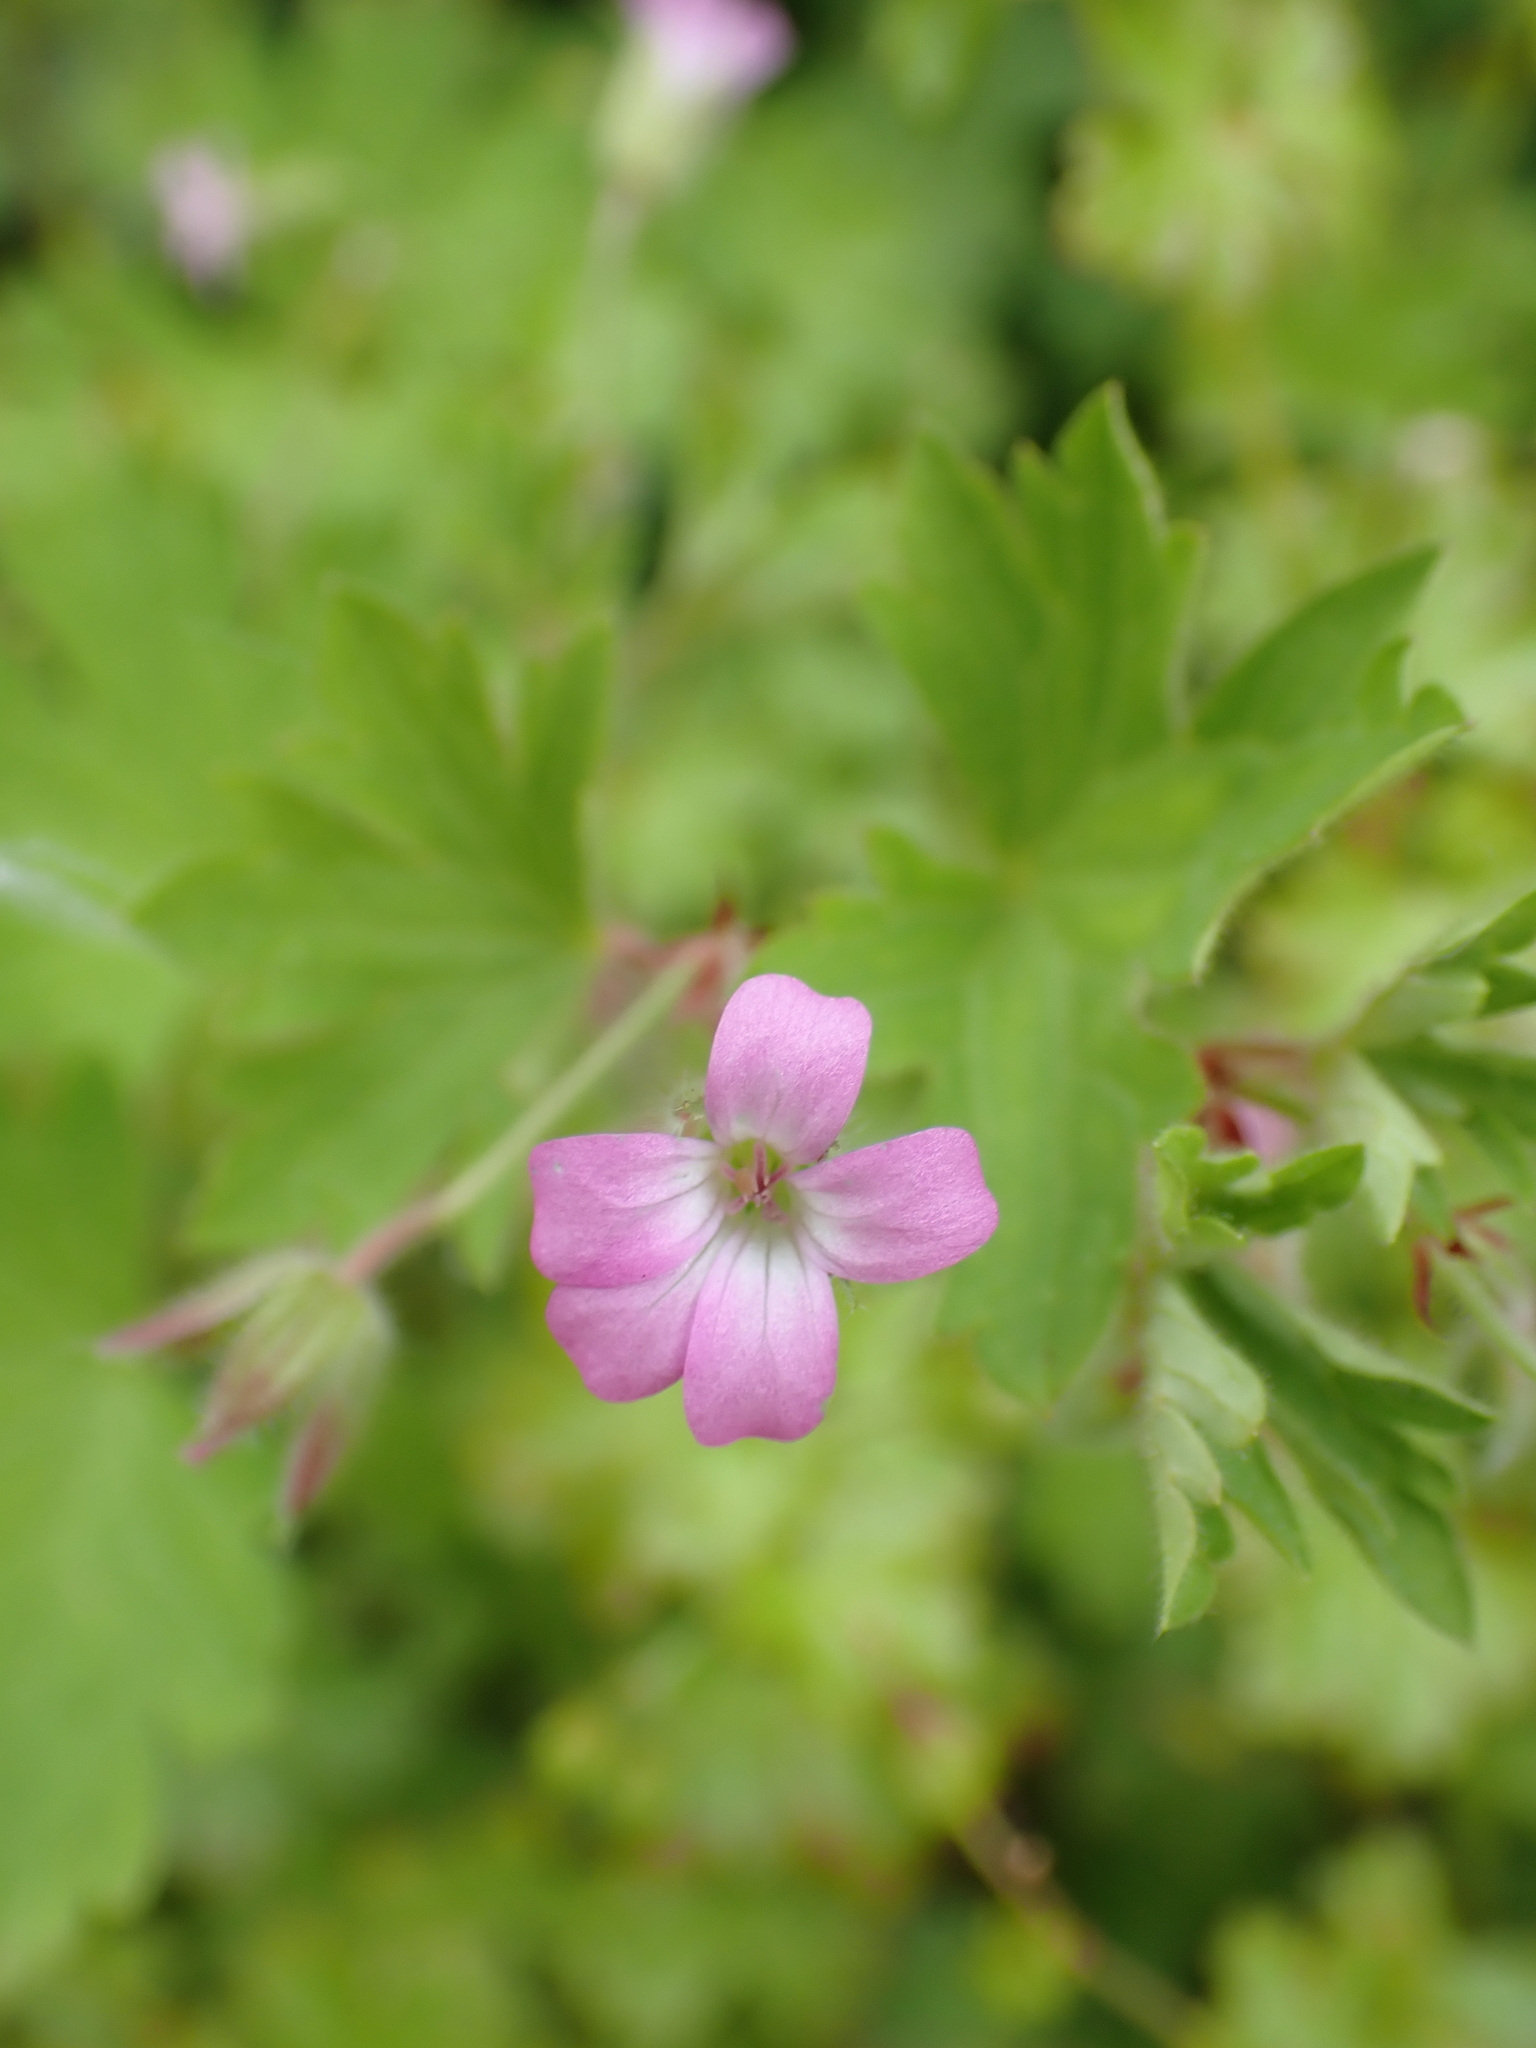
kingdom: Plantae
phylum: Tracheophyta
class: Magnoliopsida
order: Geraniales
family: Geraniaceae
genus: Geranium
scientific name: Geranium rotundifolium
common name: Round-leaved crane's-bill
